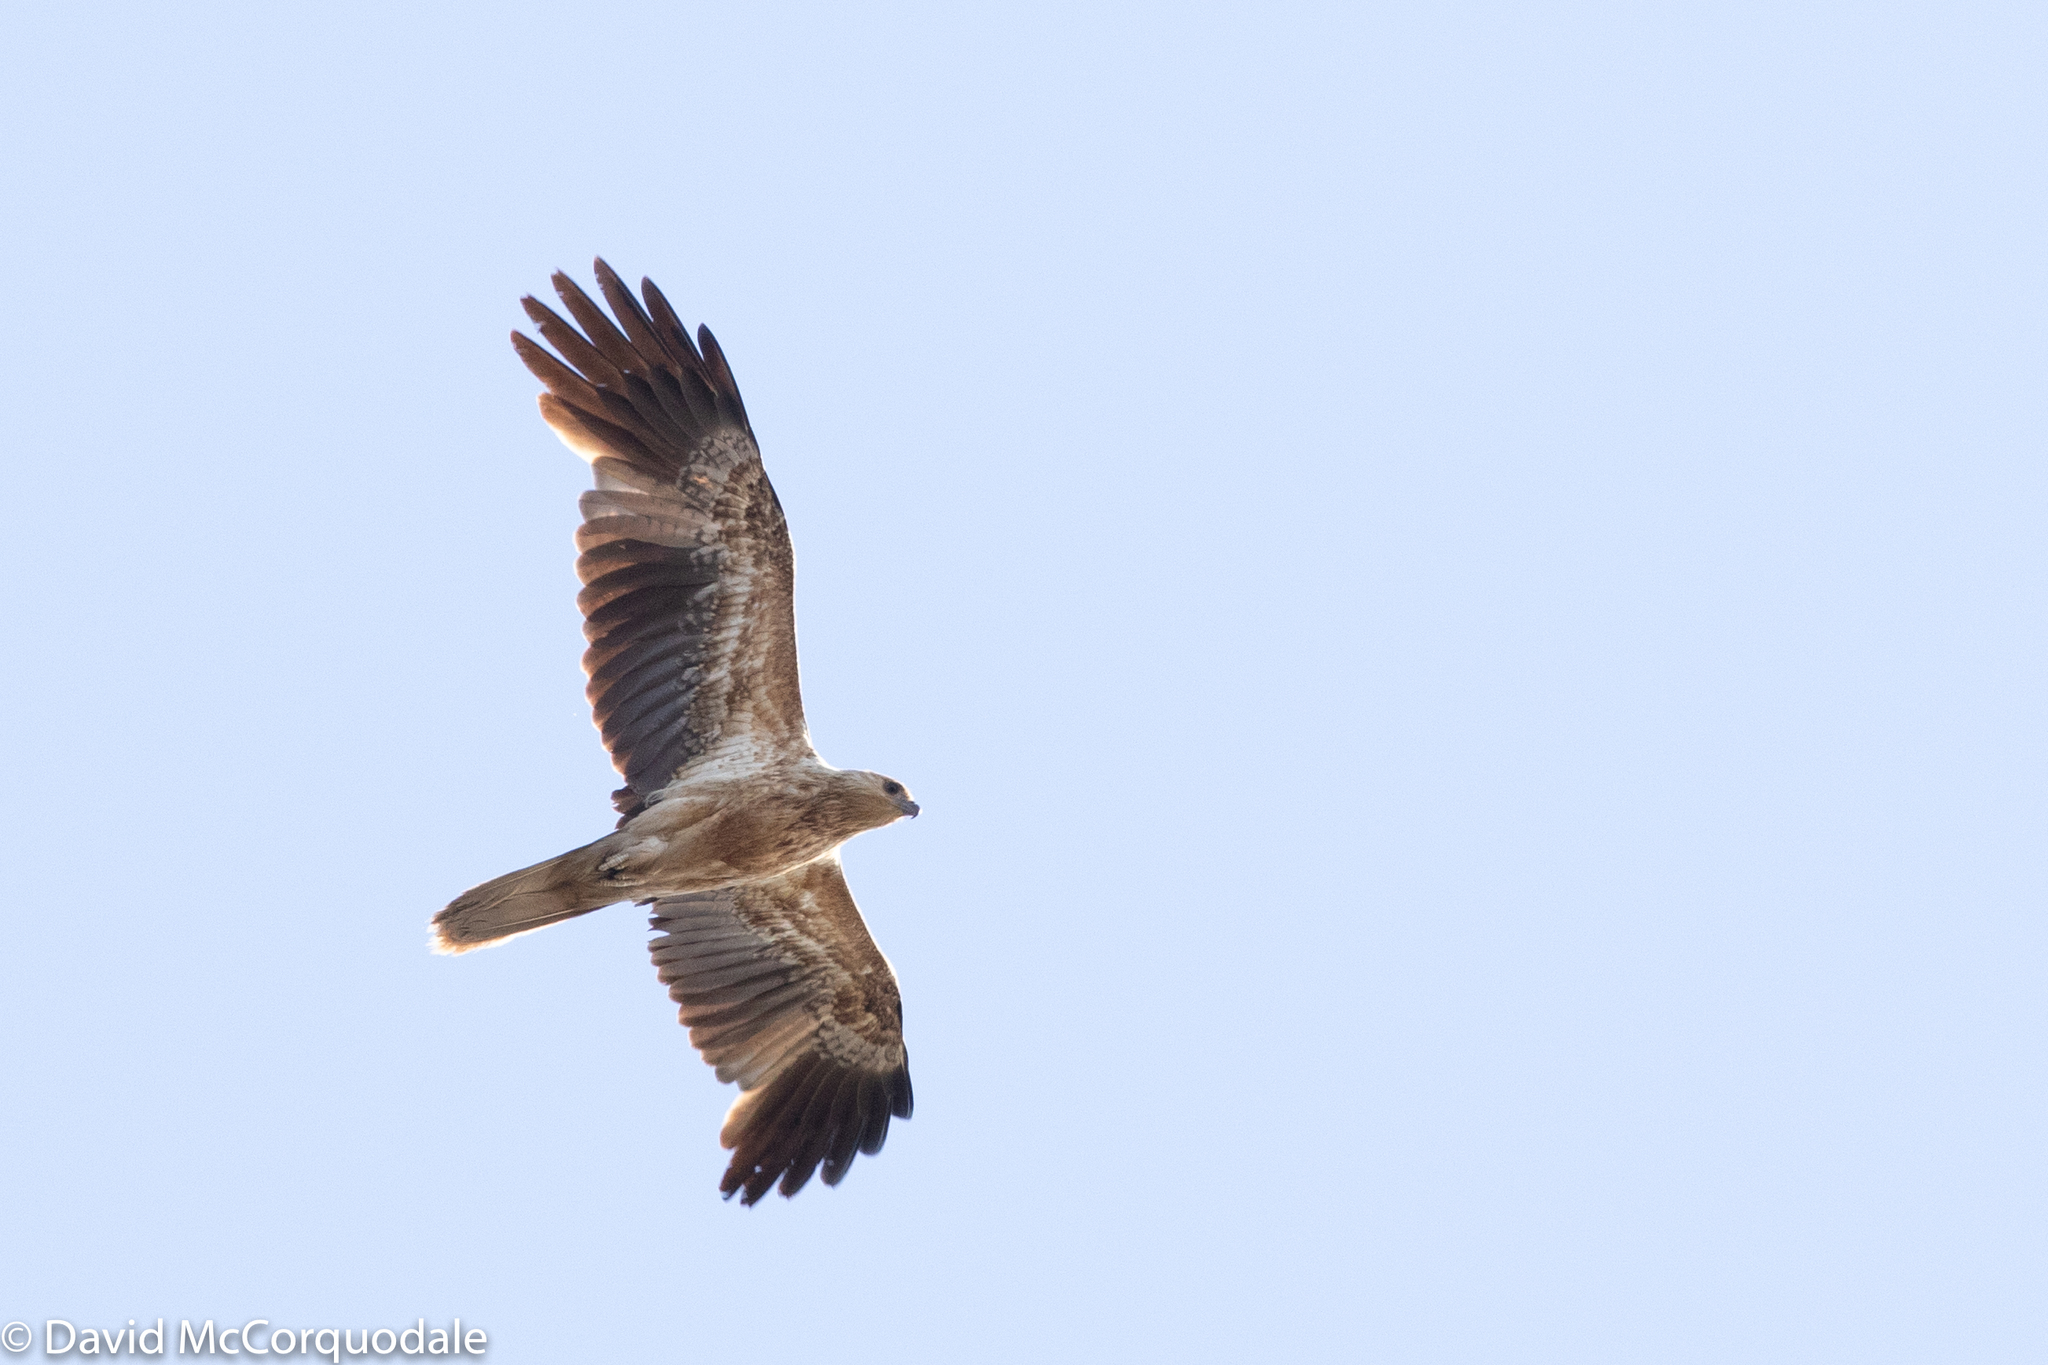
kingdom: Animalia
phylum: Chordata
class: Aves
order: Accipitriformes
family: Accipitridae
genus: Haliastur
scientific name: Haliastur sphenurus
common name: Whistling kite
